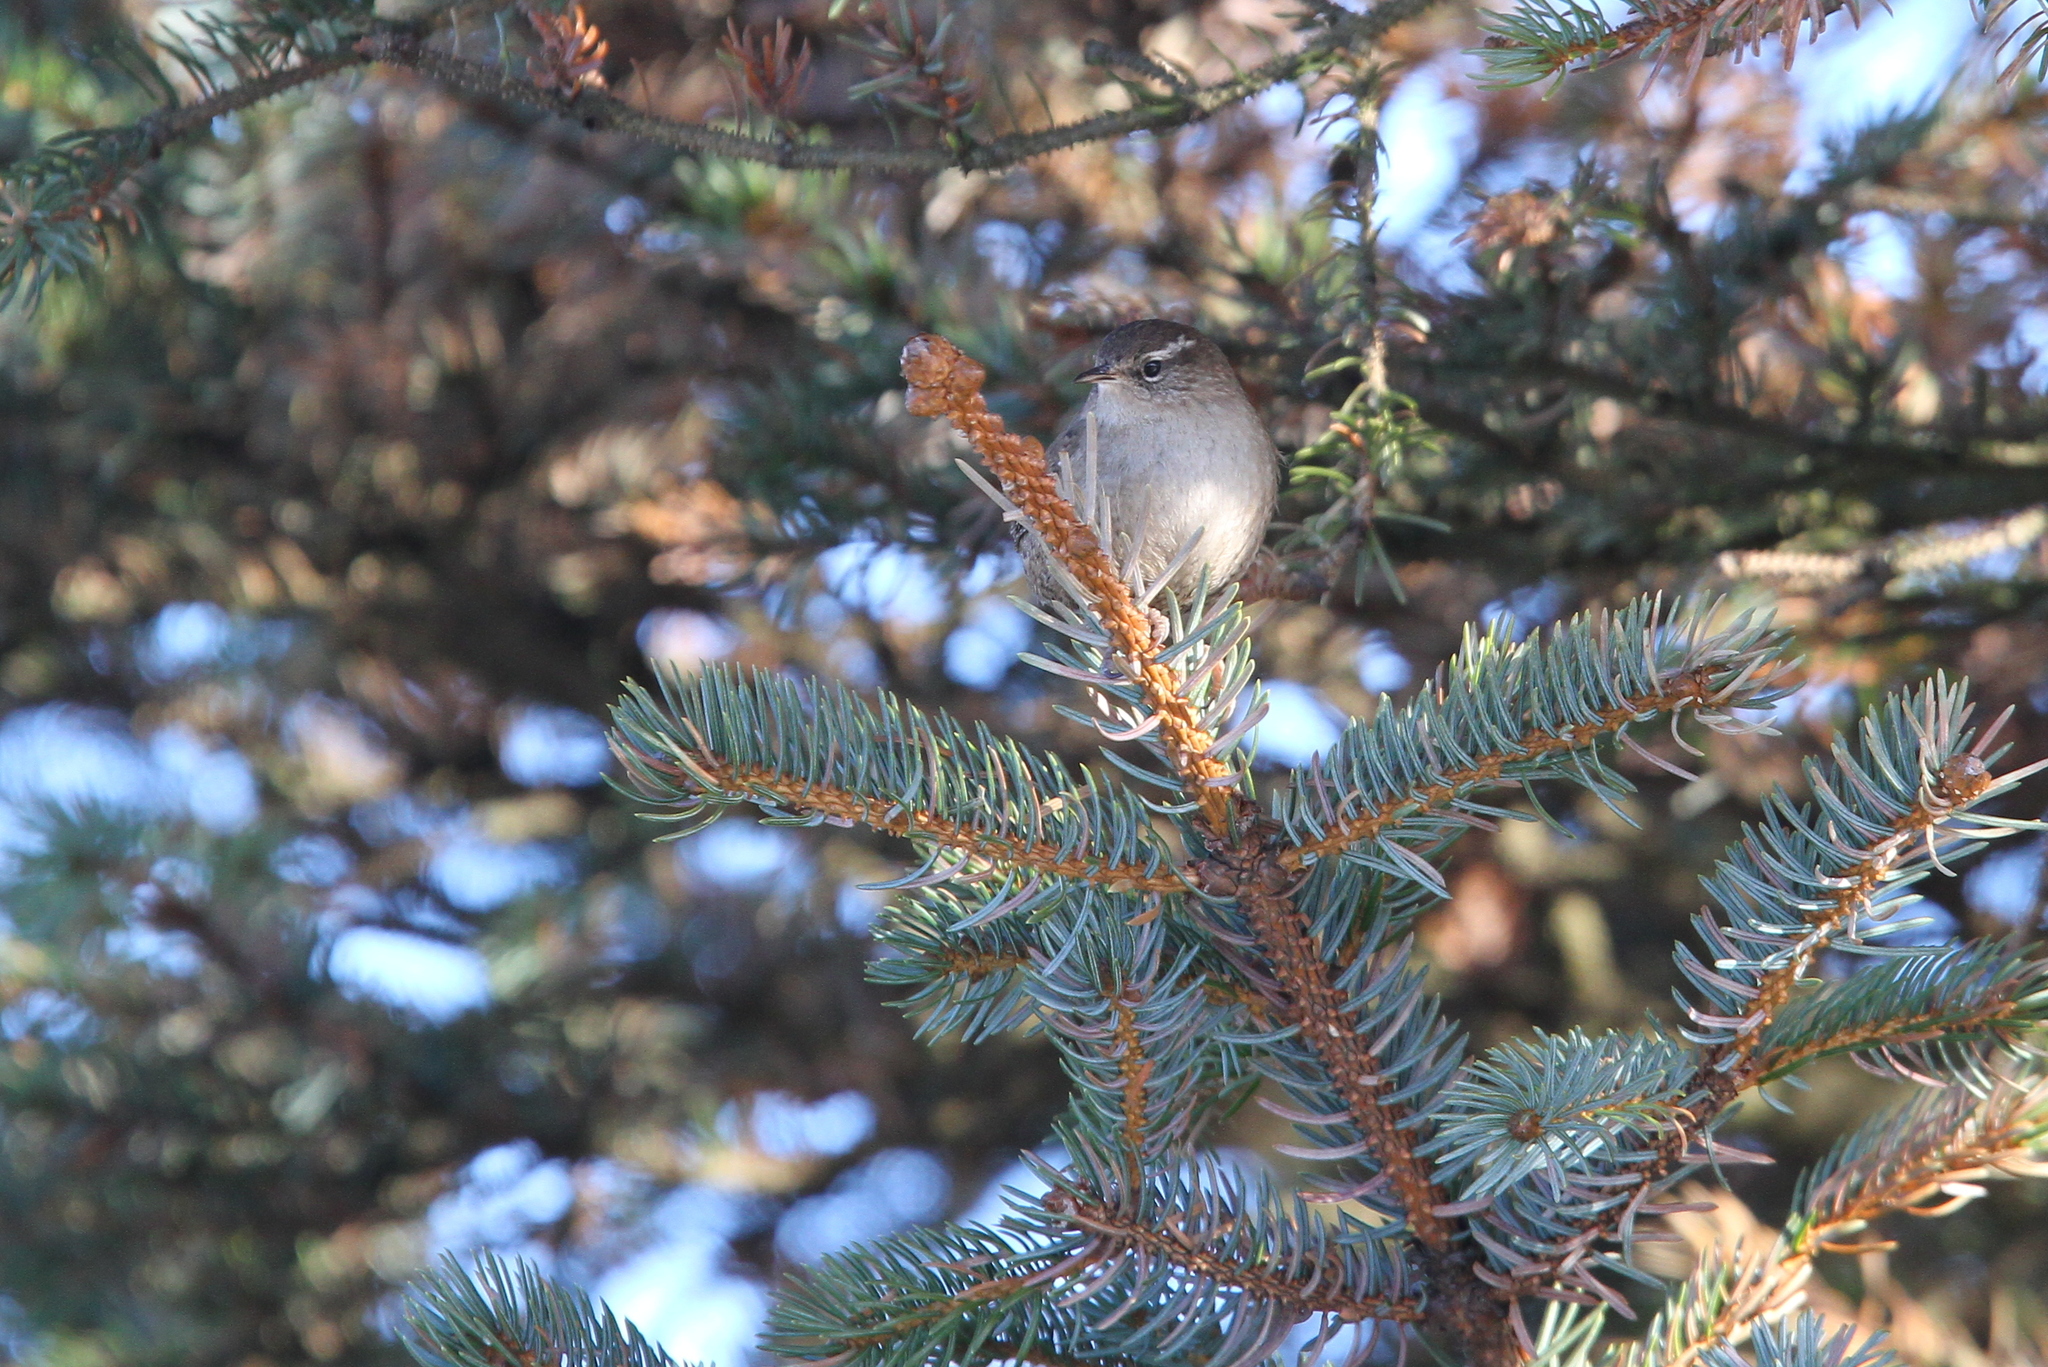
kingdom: Animalia
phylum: Chordata
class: Aves
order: Passeriformes
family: Troglodytidae
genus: Troglodytes
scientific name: Troglodytes troglodytes
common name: Eurasian wren
